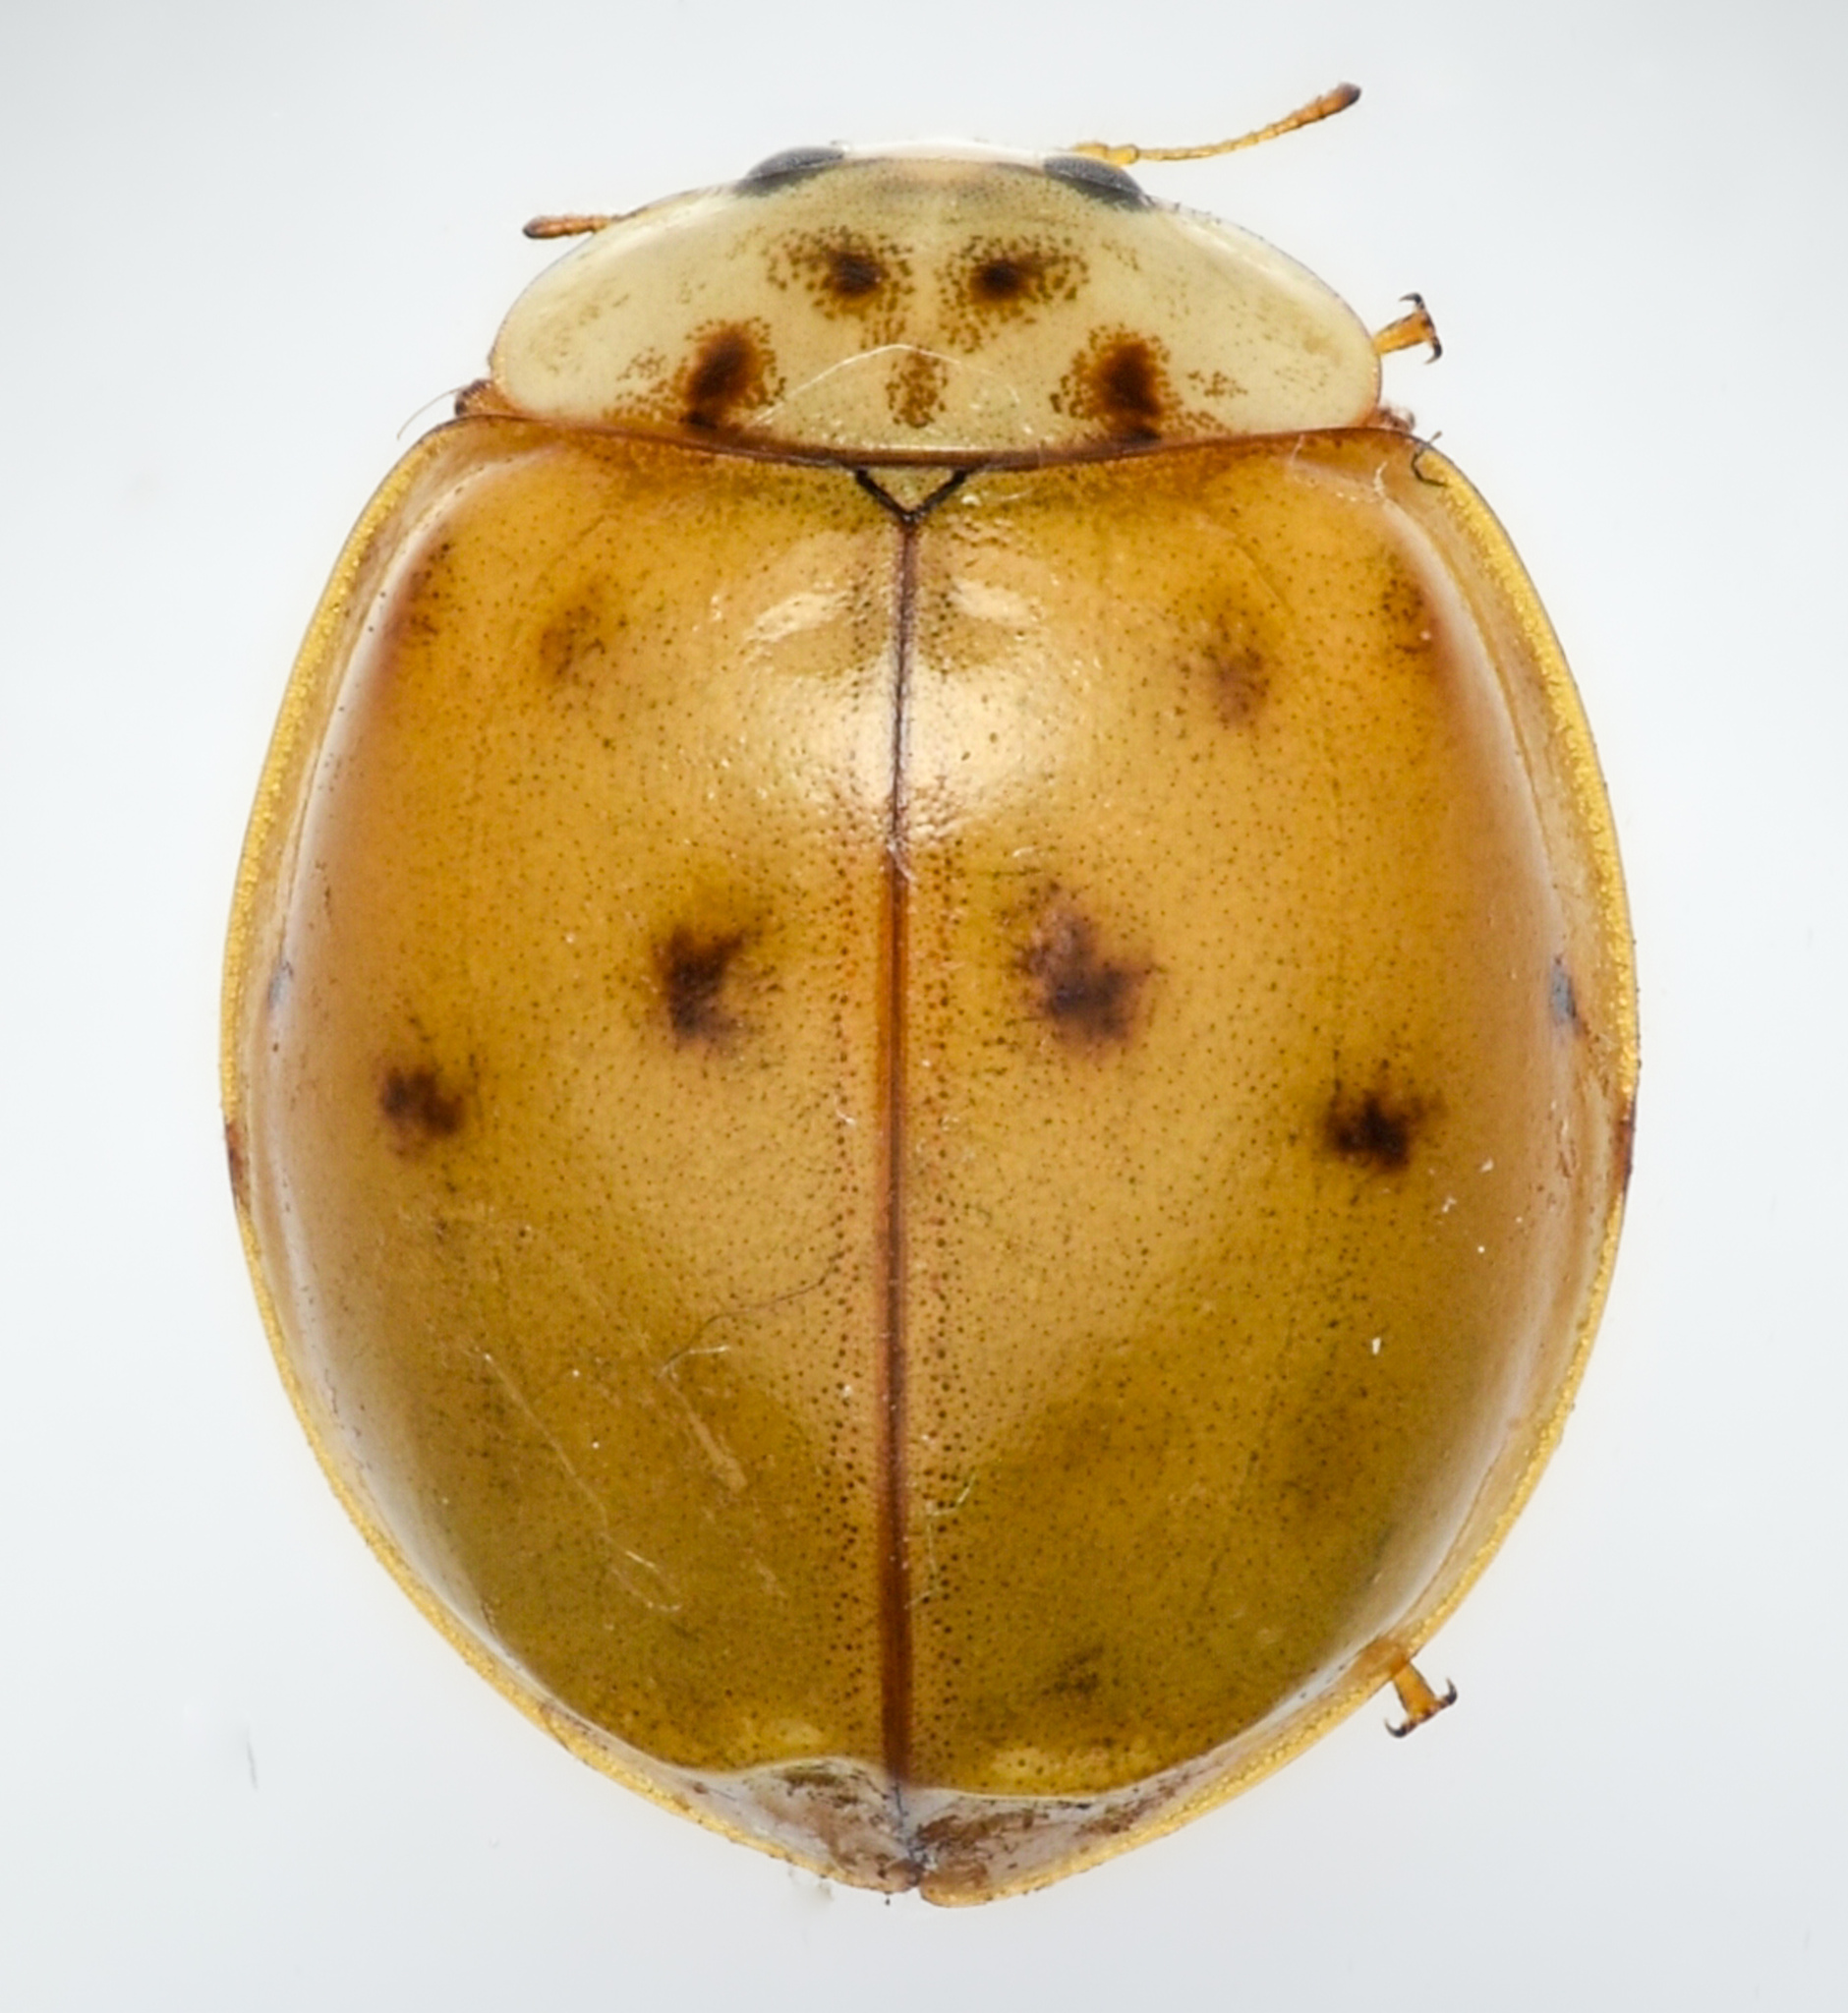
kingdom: Animalia
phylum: Arthropoda
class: Insecta
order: Coleoptera
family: Coccinellidae
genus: Harmonia
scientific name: Harmonia axyridis
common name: Harlequin ladybird
